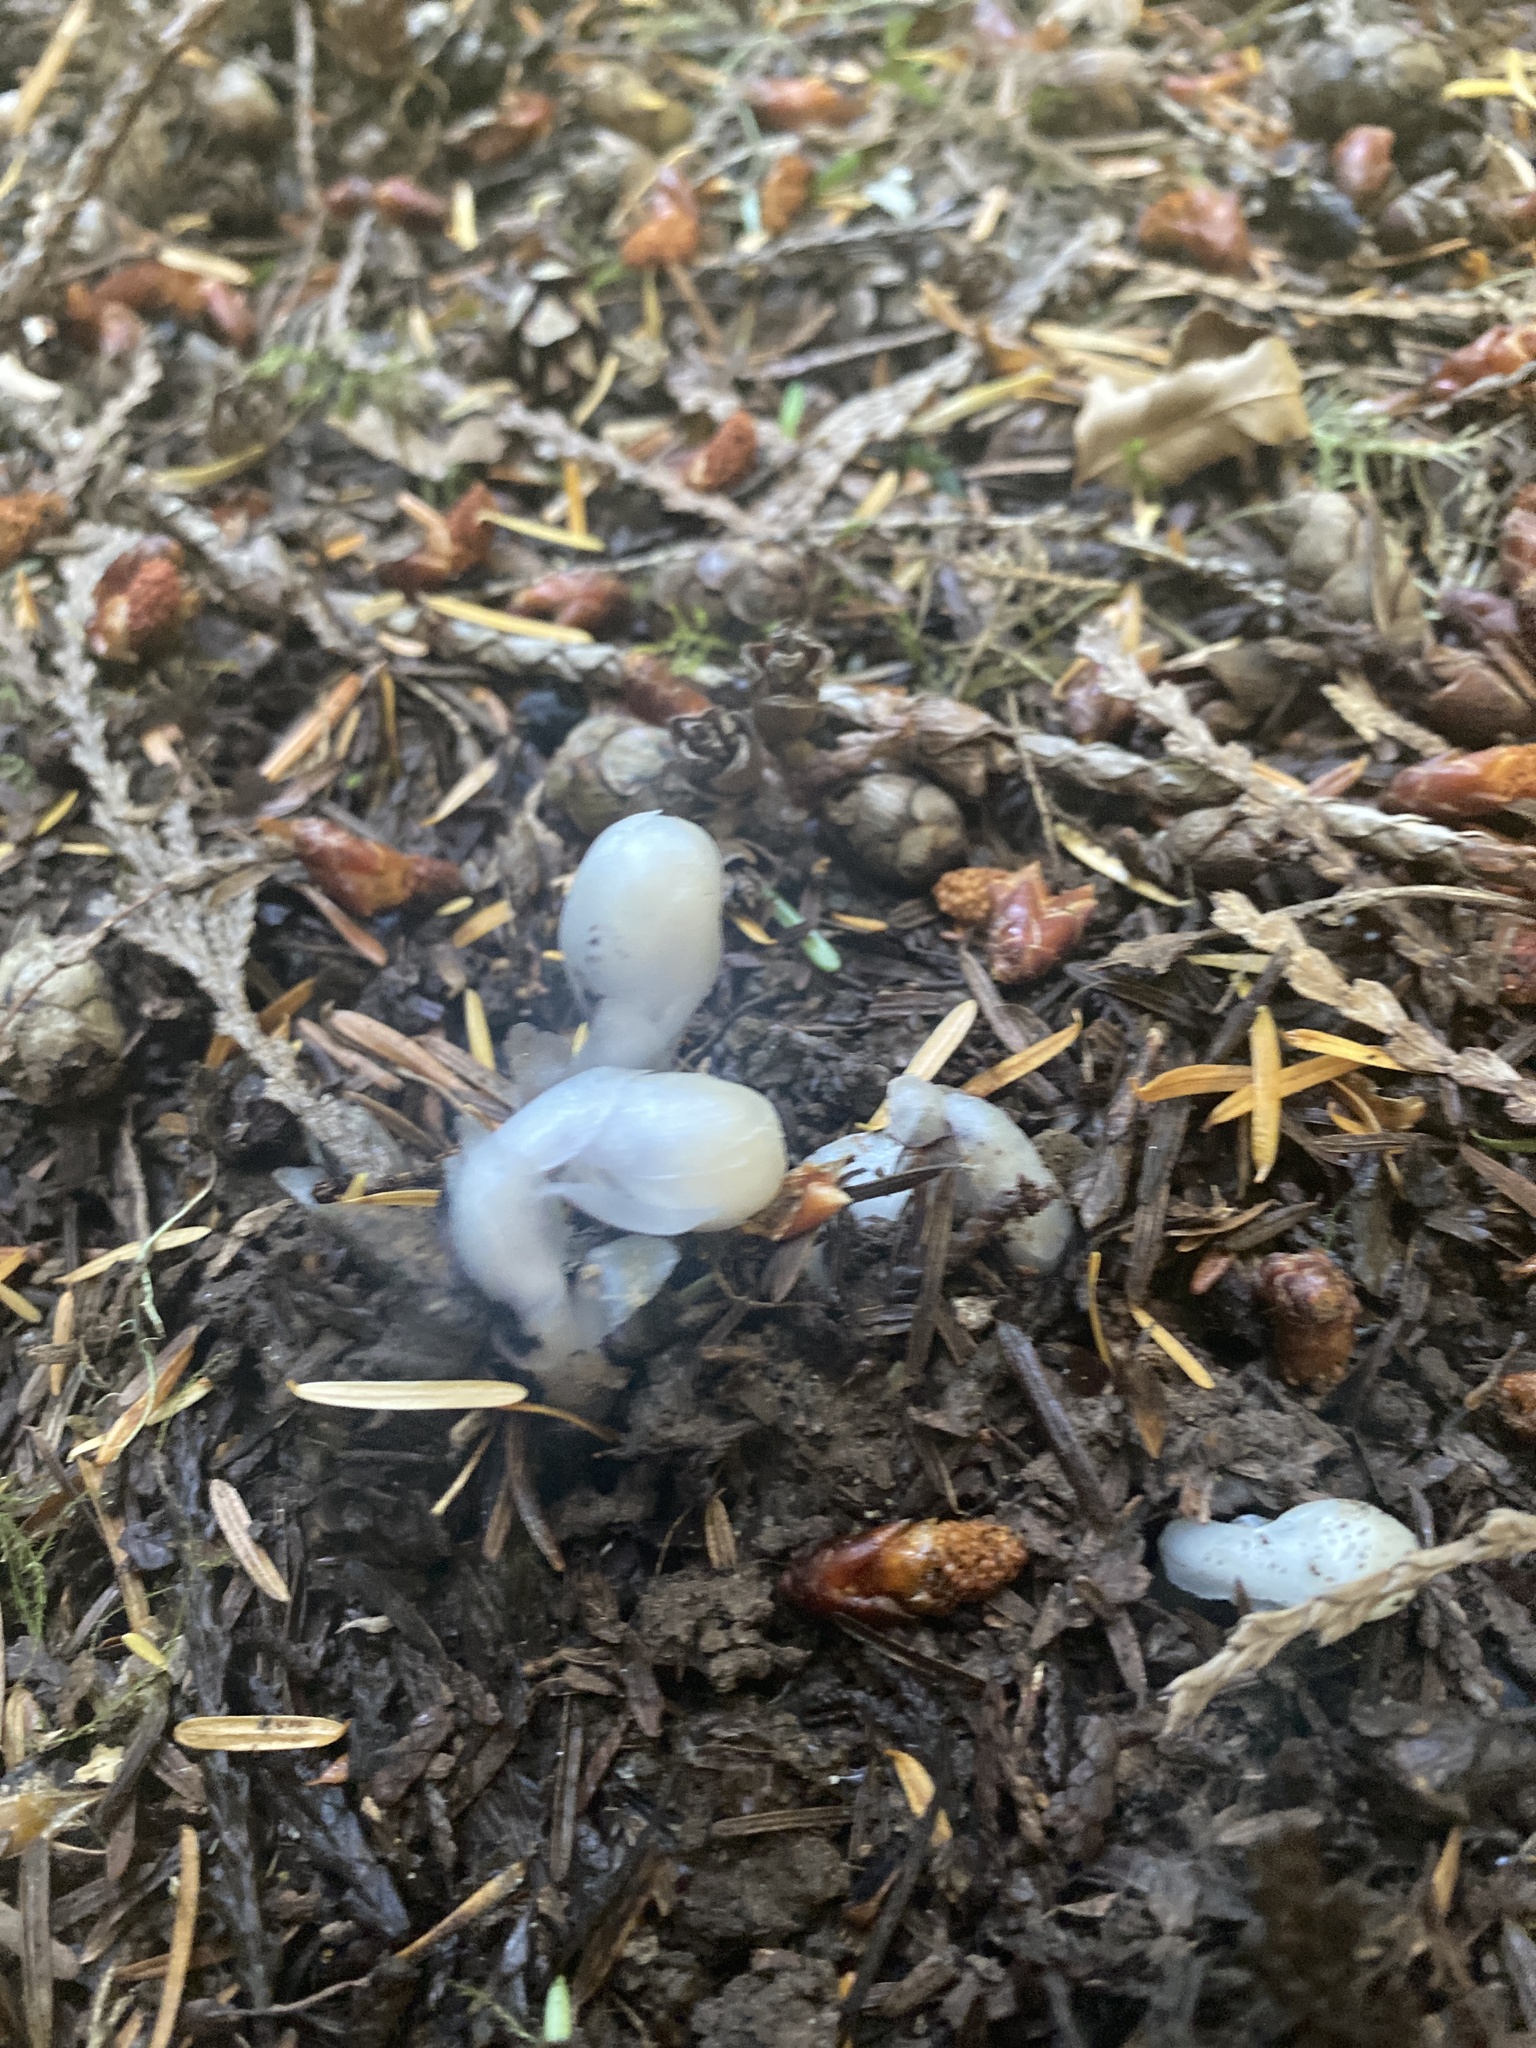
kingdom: Plantae
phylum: Tracheophyta
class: Magnoliopsida
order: Ericales
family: Ericaceae
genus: Monotropa
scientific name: Monotropa uniflora
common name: Convulsion root
